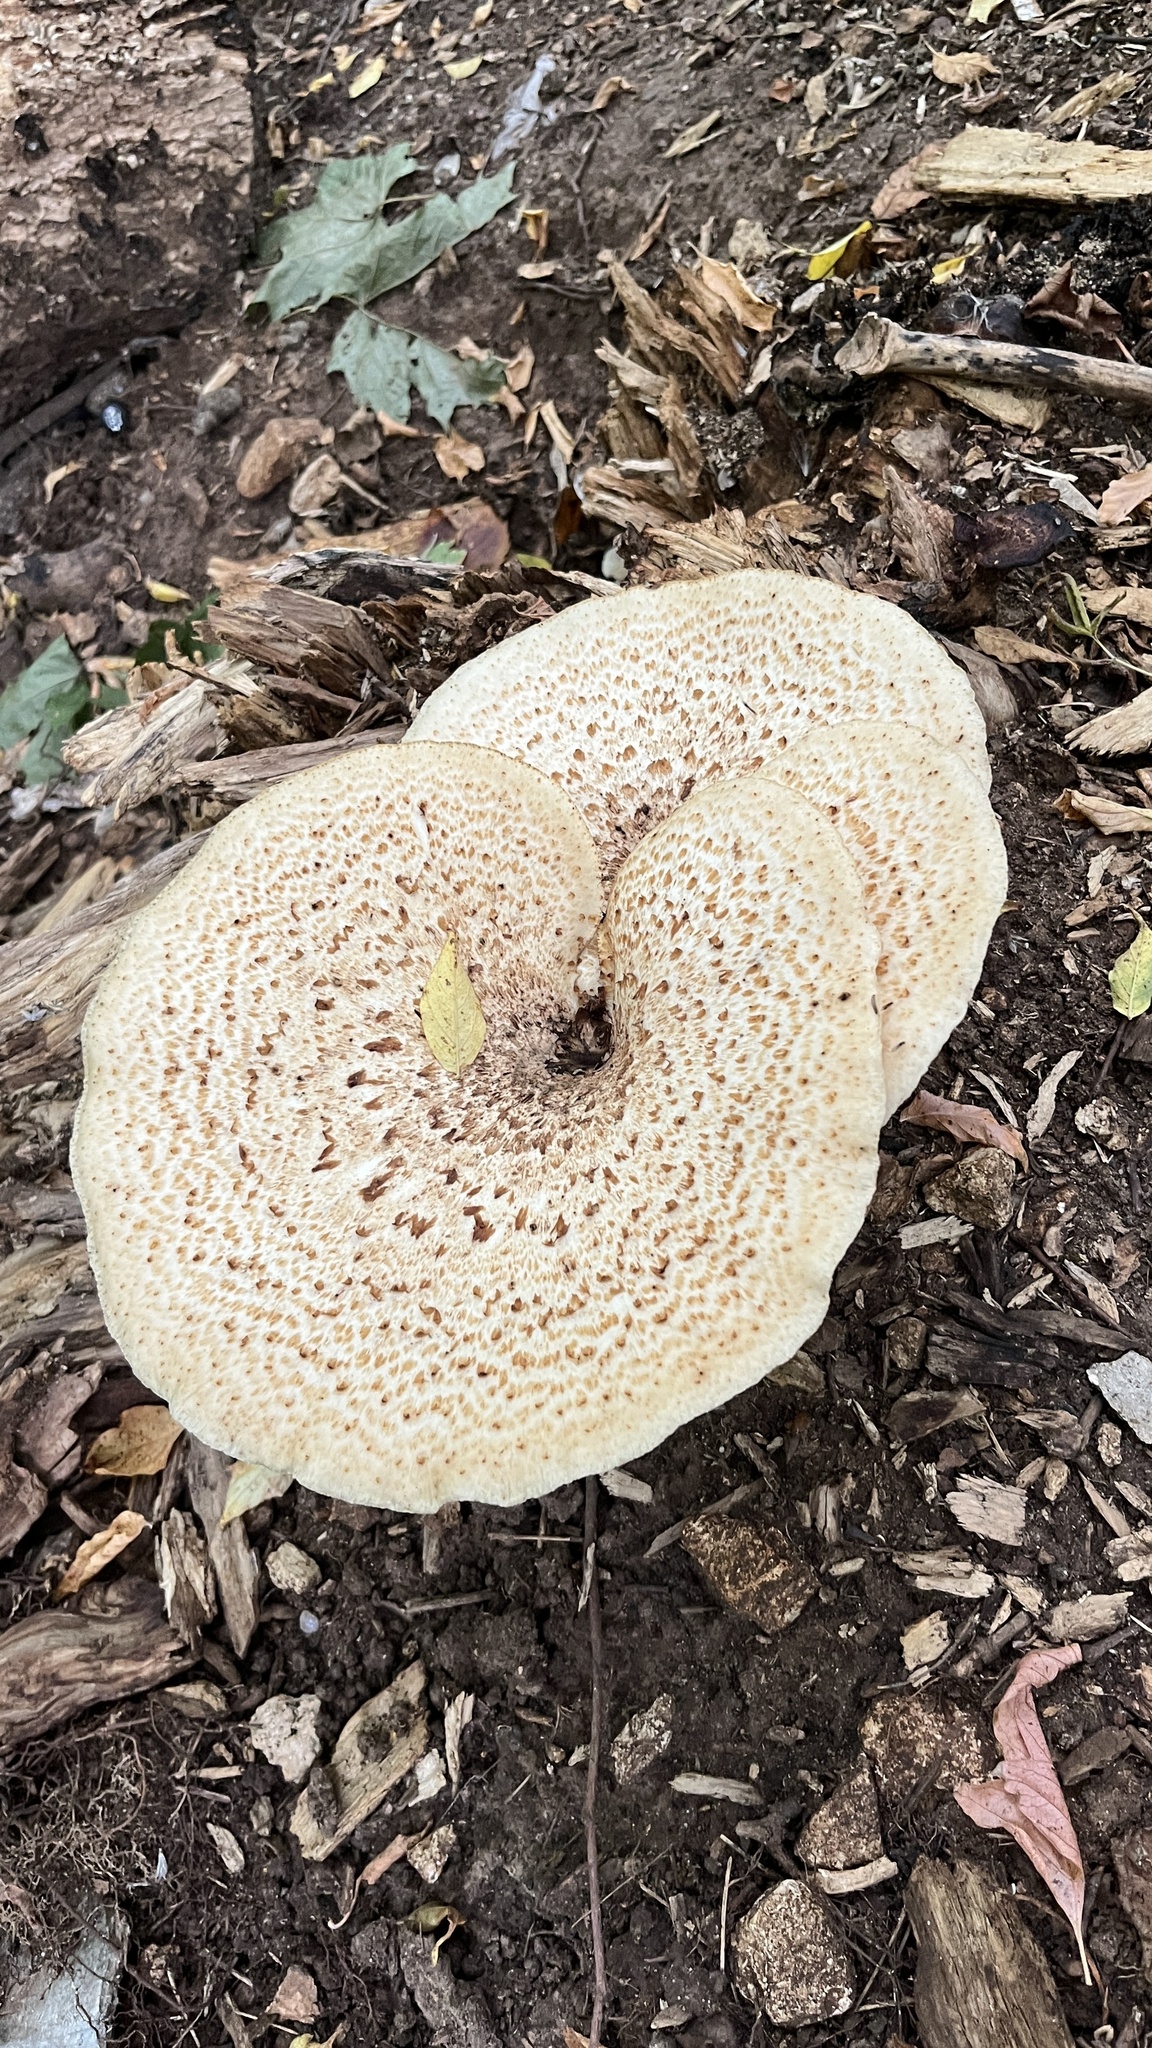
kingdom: Fungi
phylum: Basidiomycota
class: Agaricomycetes
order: Polyporales
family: Polyporaceae
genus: Cerioporus
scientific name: Cerioporus squamosus
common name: Dryad's saddle
